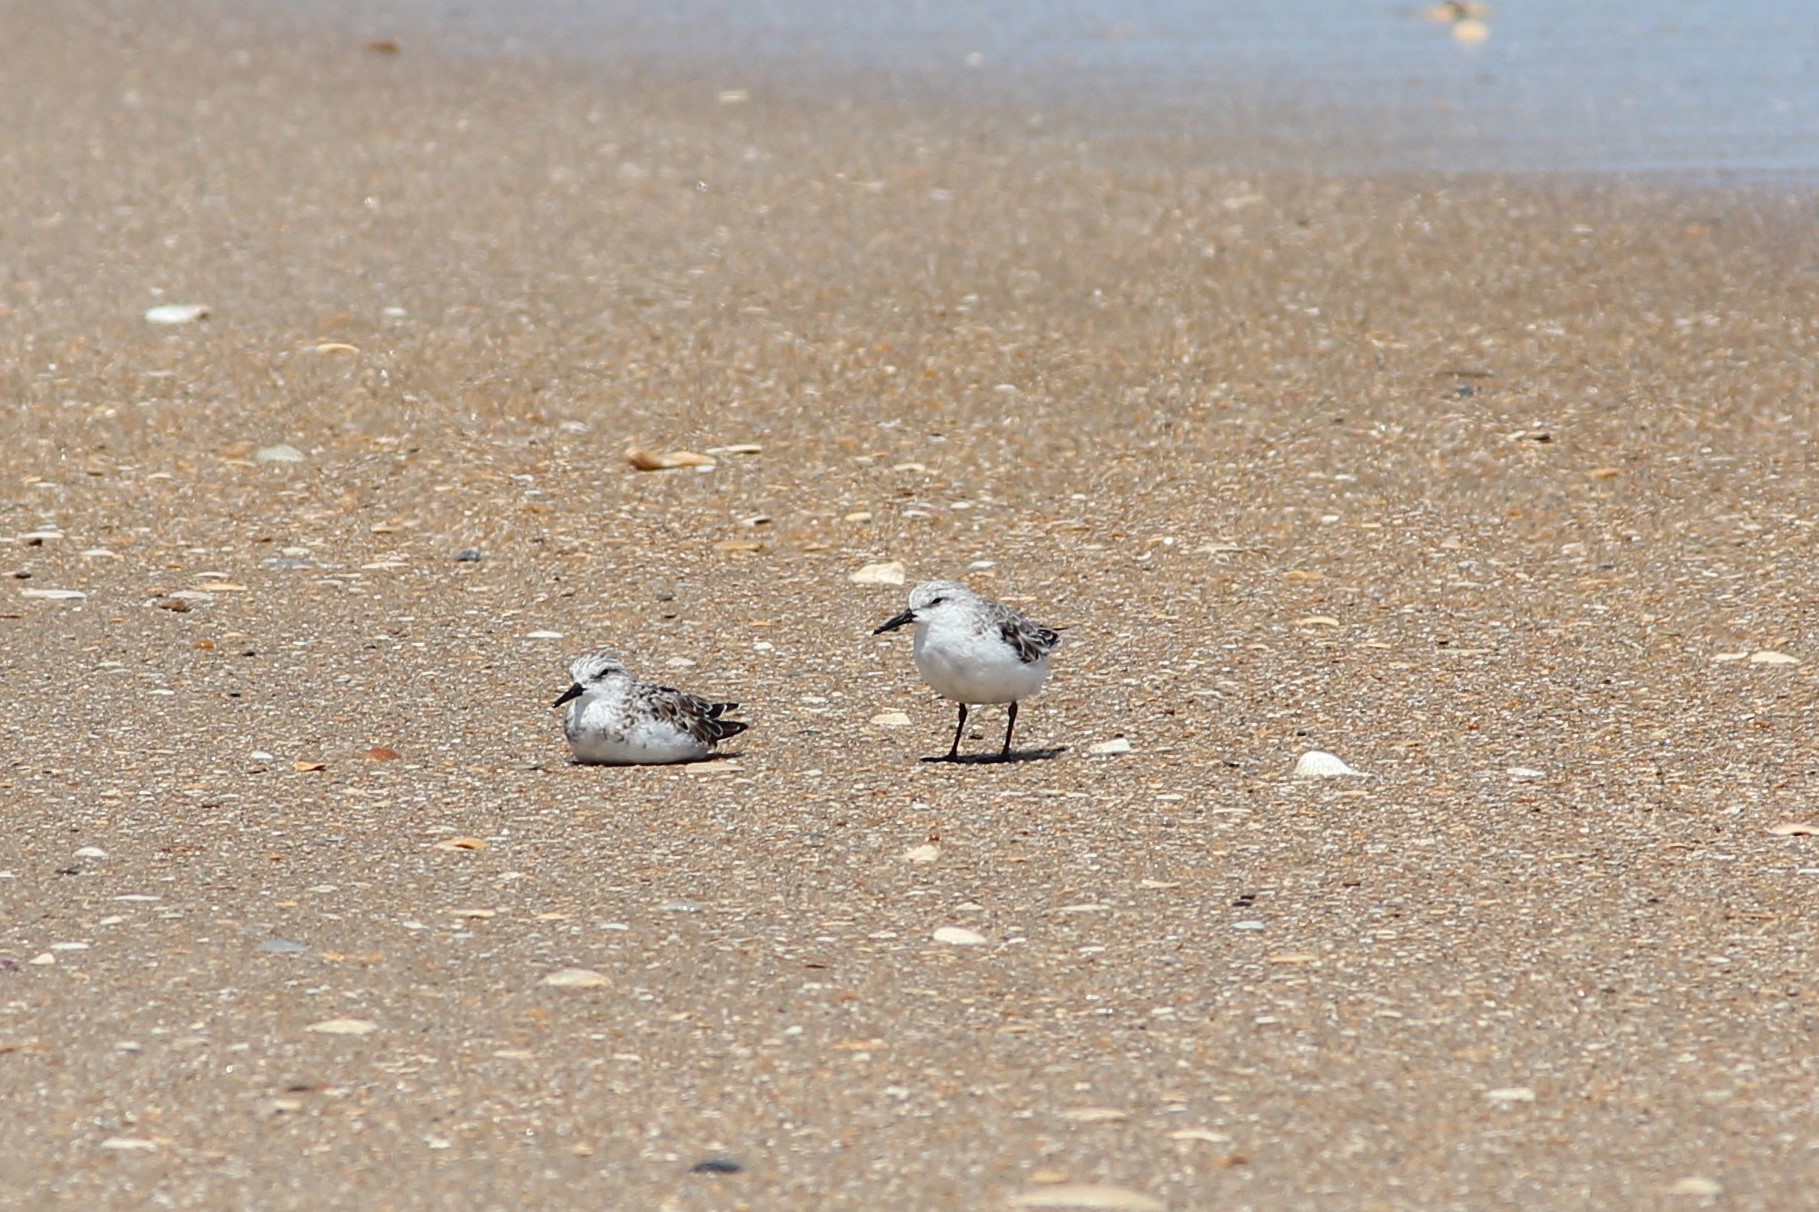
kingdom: Animalia
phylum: Chordata
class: Aves
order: Charadriiformes
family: Scolopacidae
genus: Calidris
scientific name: Calidris alba
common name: Sanderling
